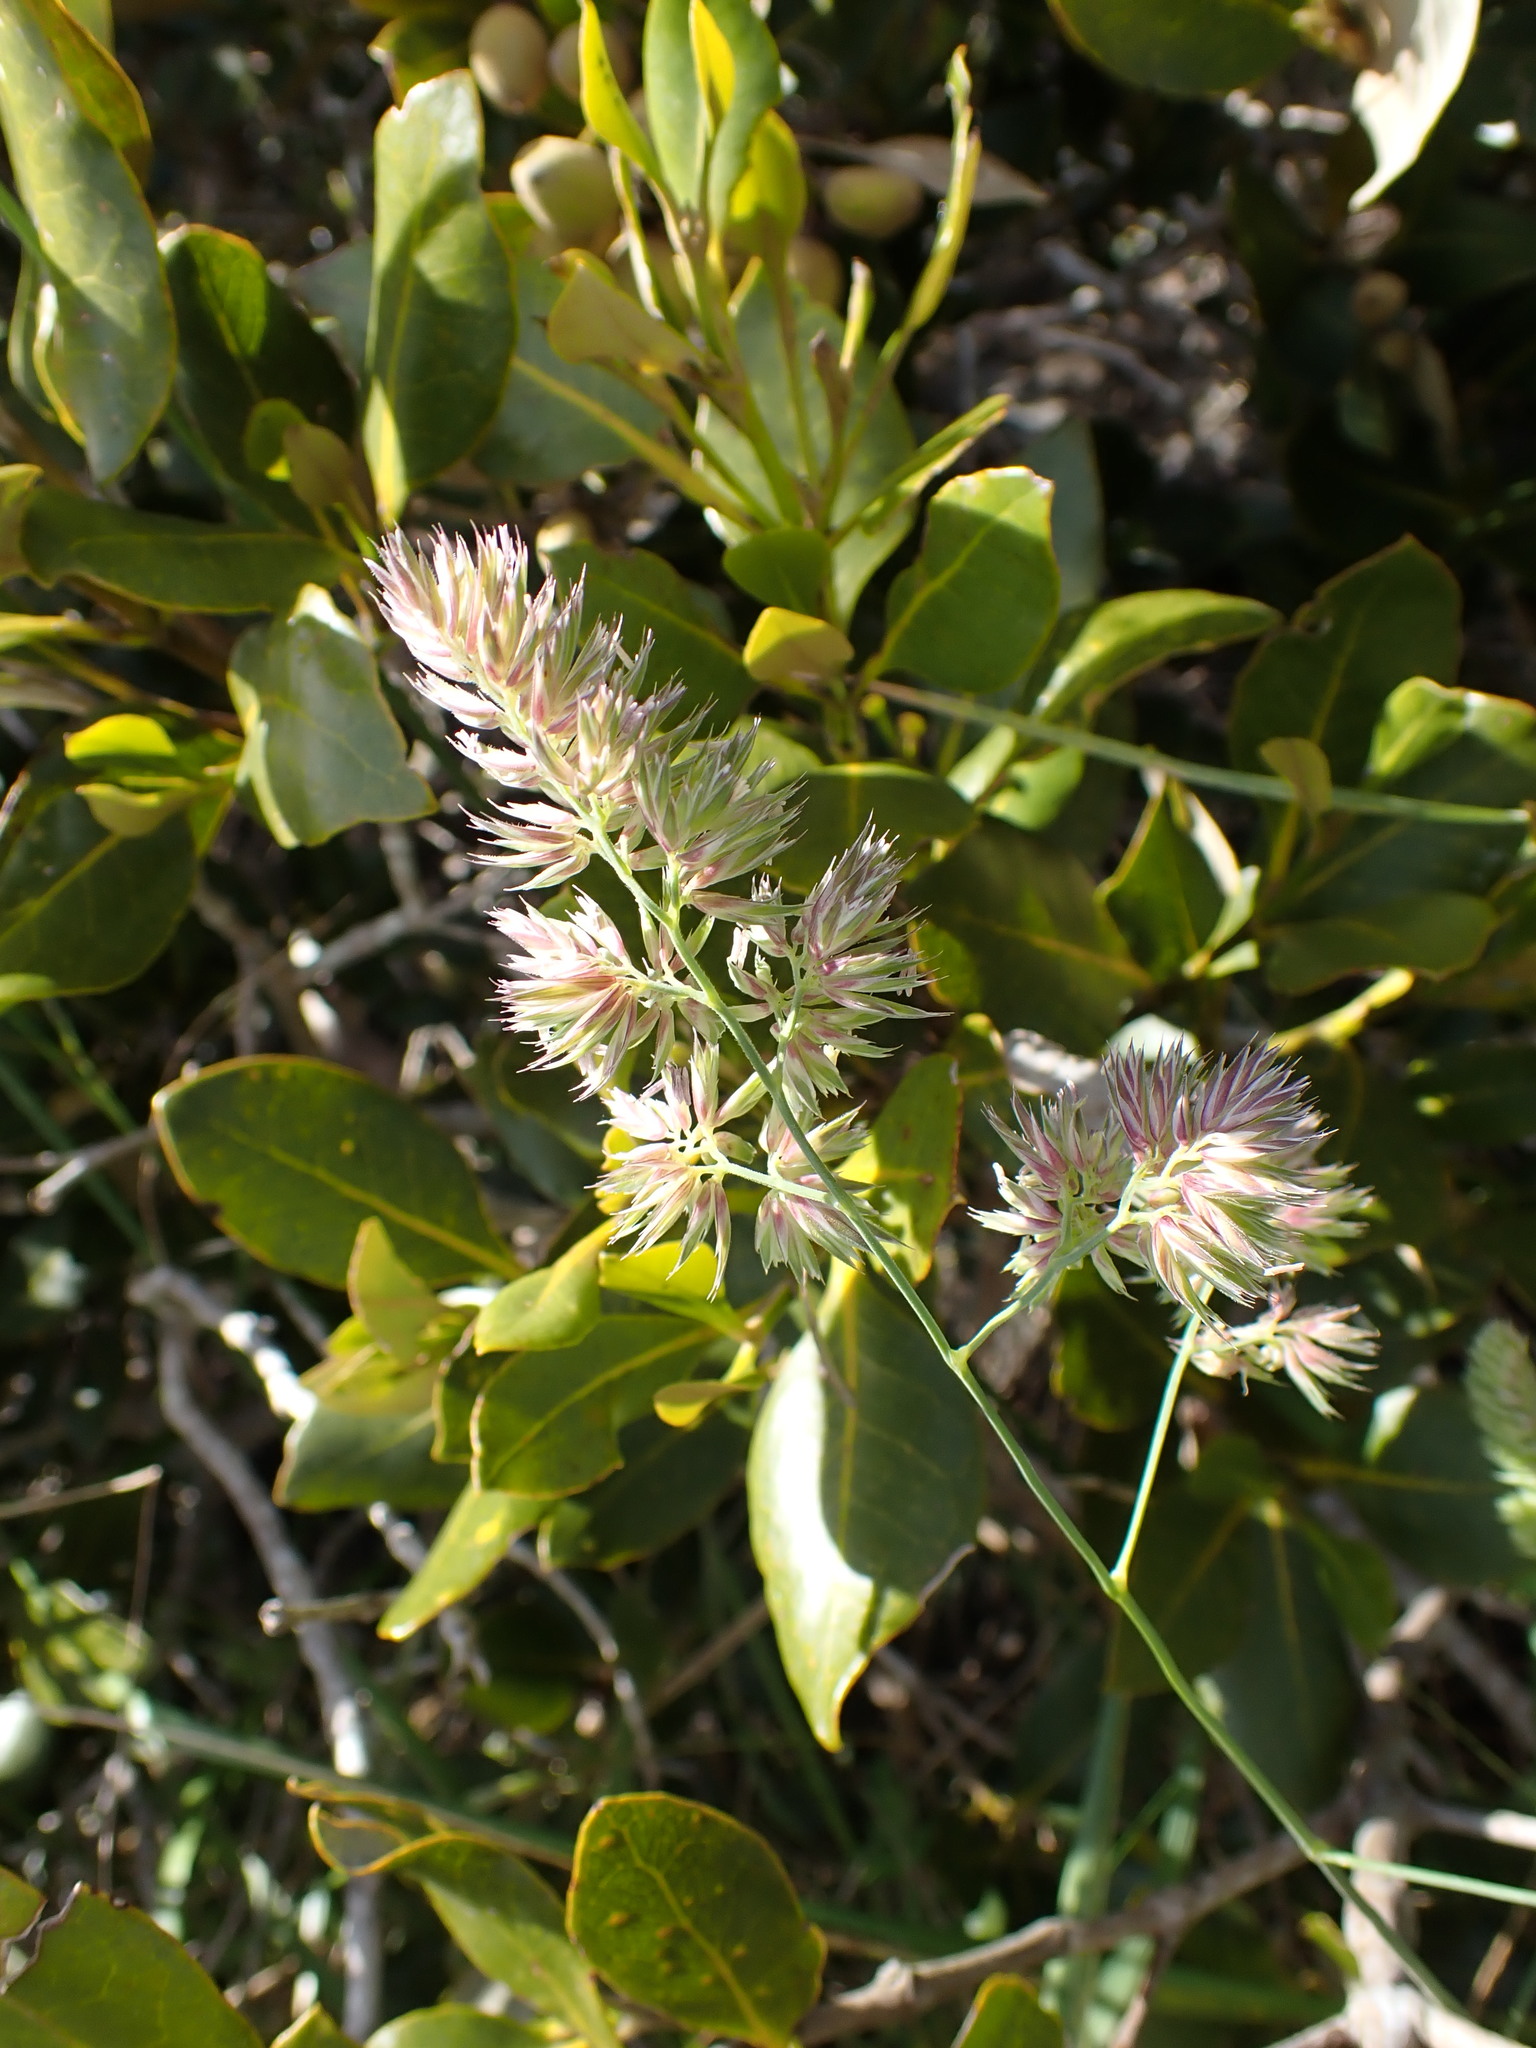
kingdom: Plantae
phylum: Tracheophyta
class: Liliopsida
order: Poales
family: Poaceae
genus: Dactylis
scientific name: Dactylis glomerata
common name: Orchardgrass
